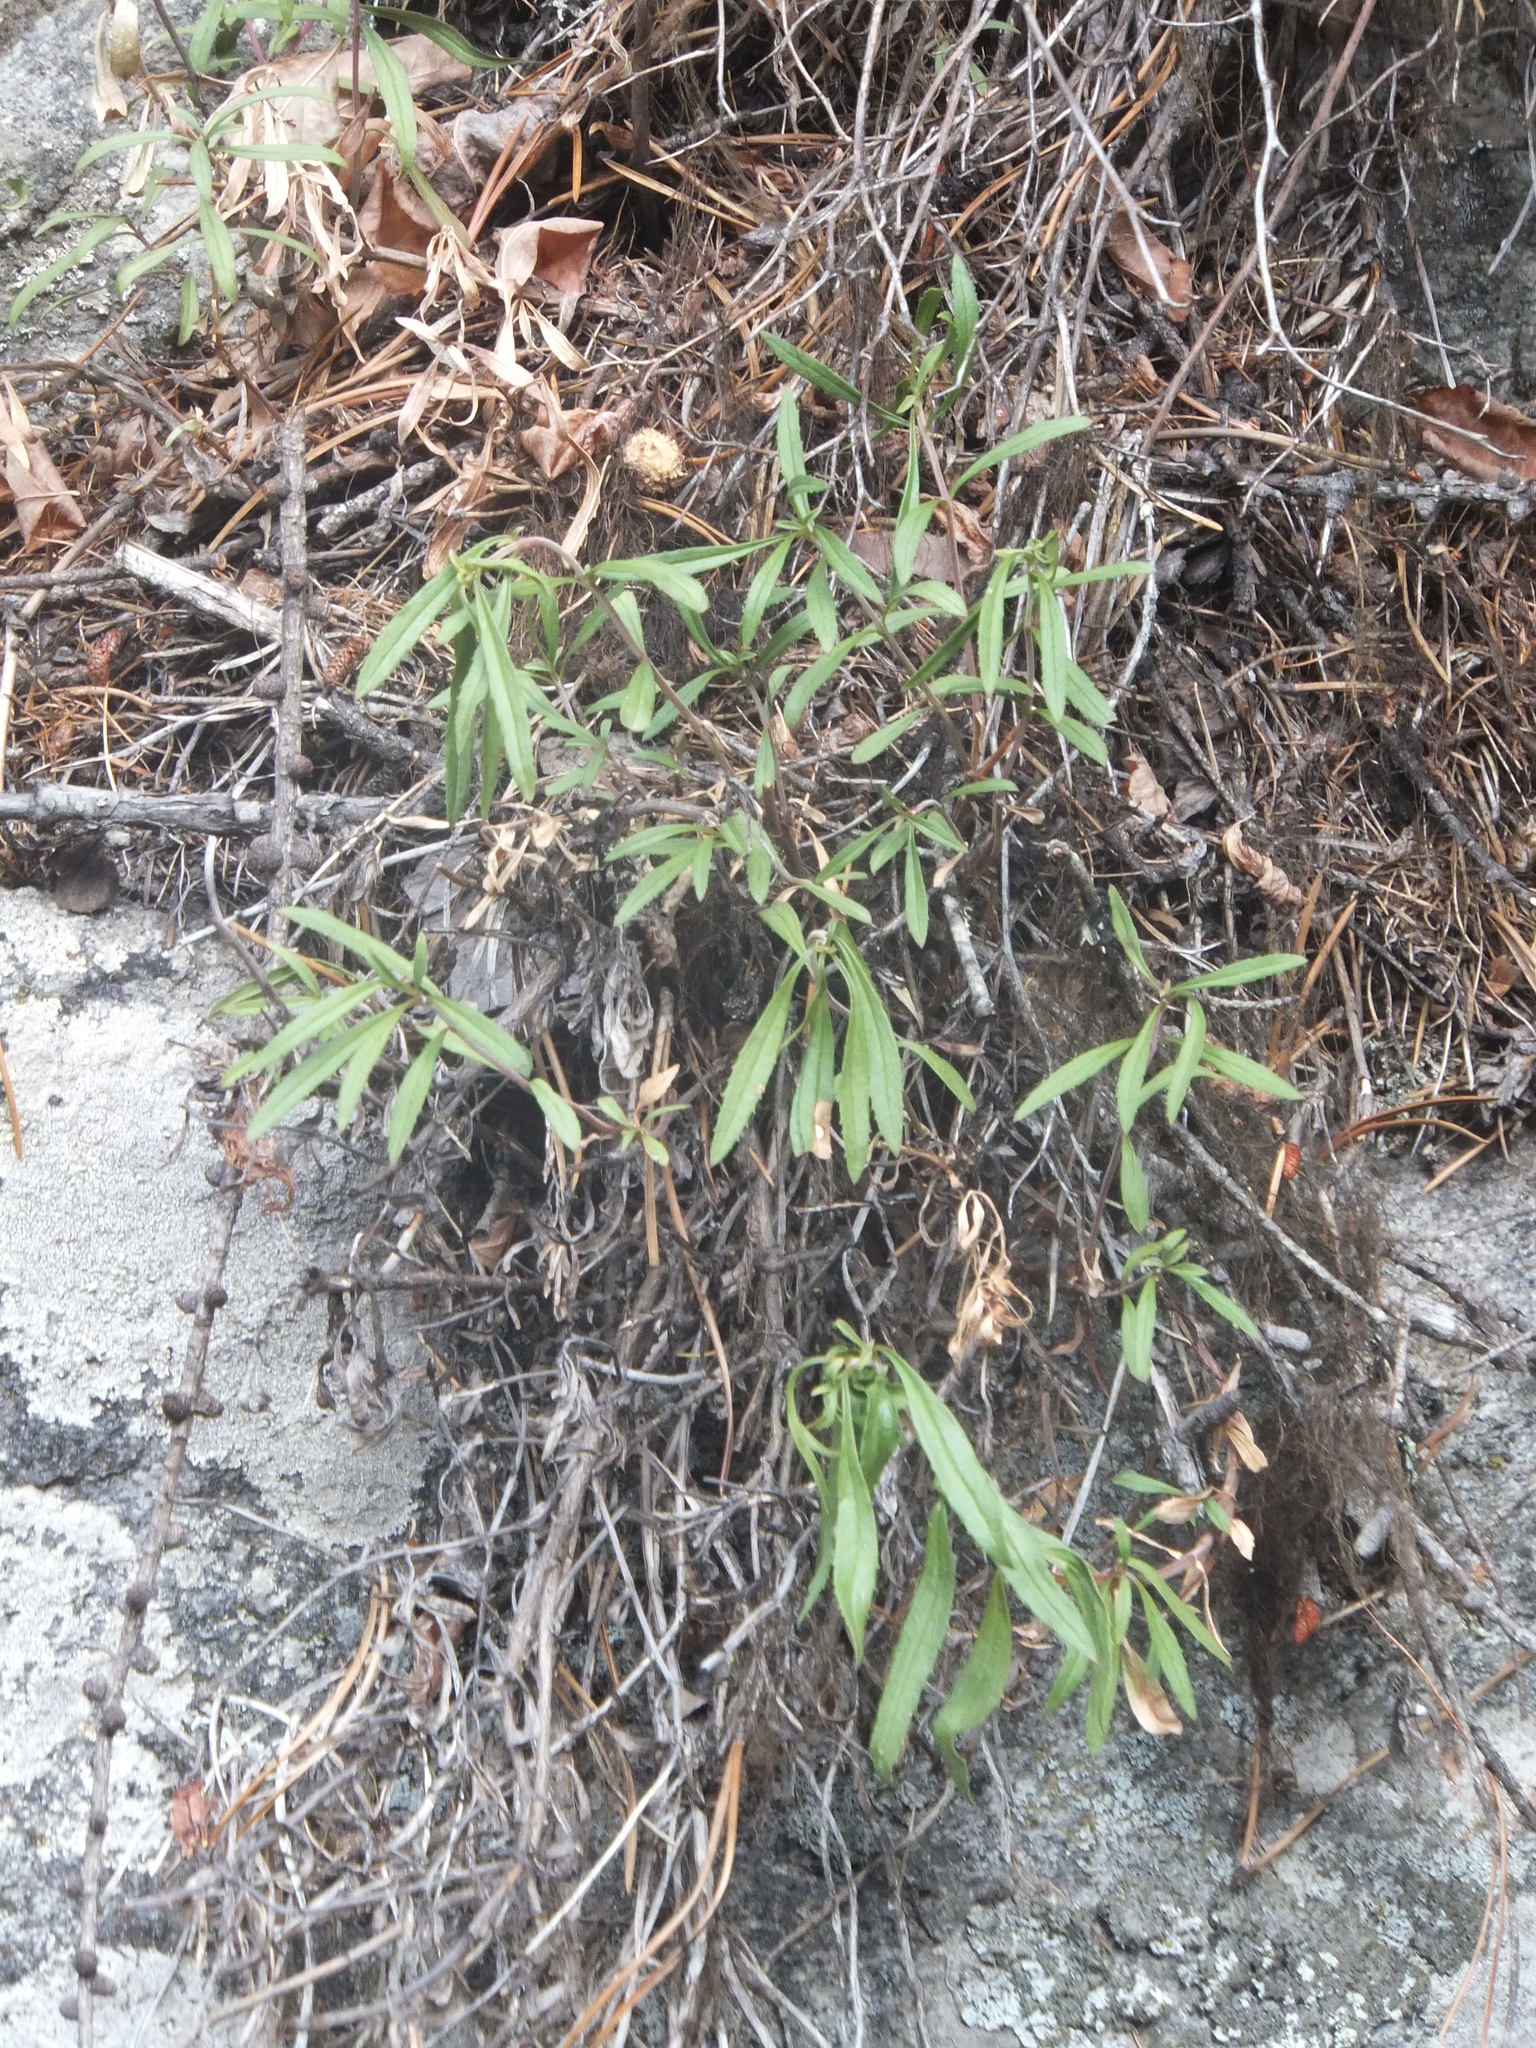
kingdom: Plantae
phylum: Tracheophyta
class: Magnoliopsida
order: Lamiales
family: Plantaginaceae
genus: Penstemon
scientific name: Penstemon fruticosus
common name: Bush penstemon
